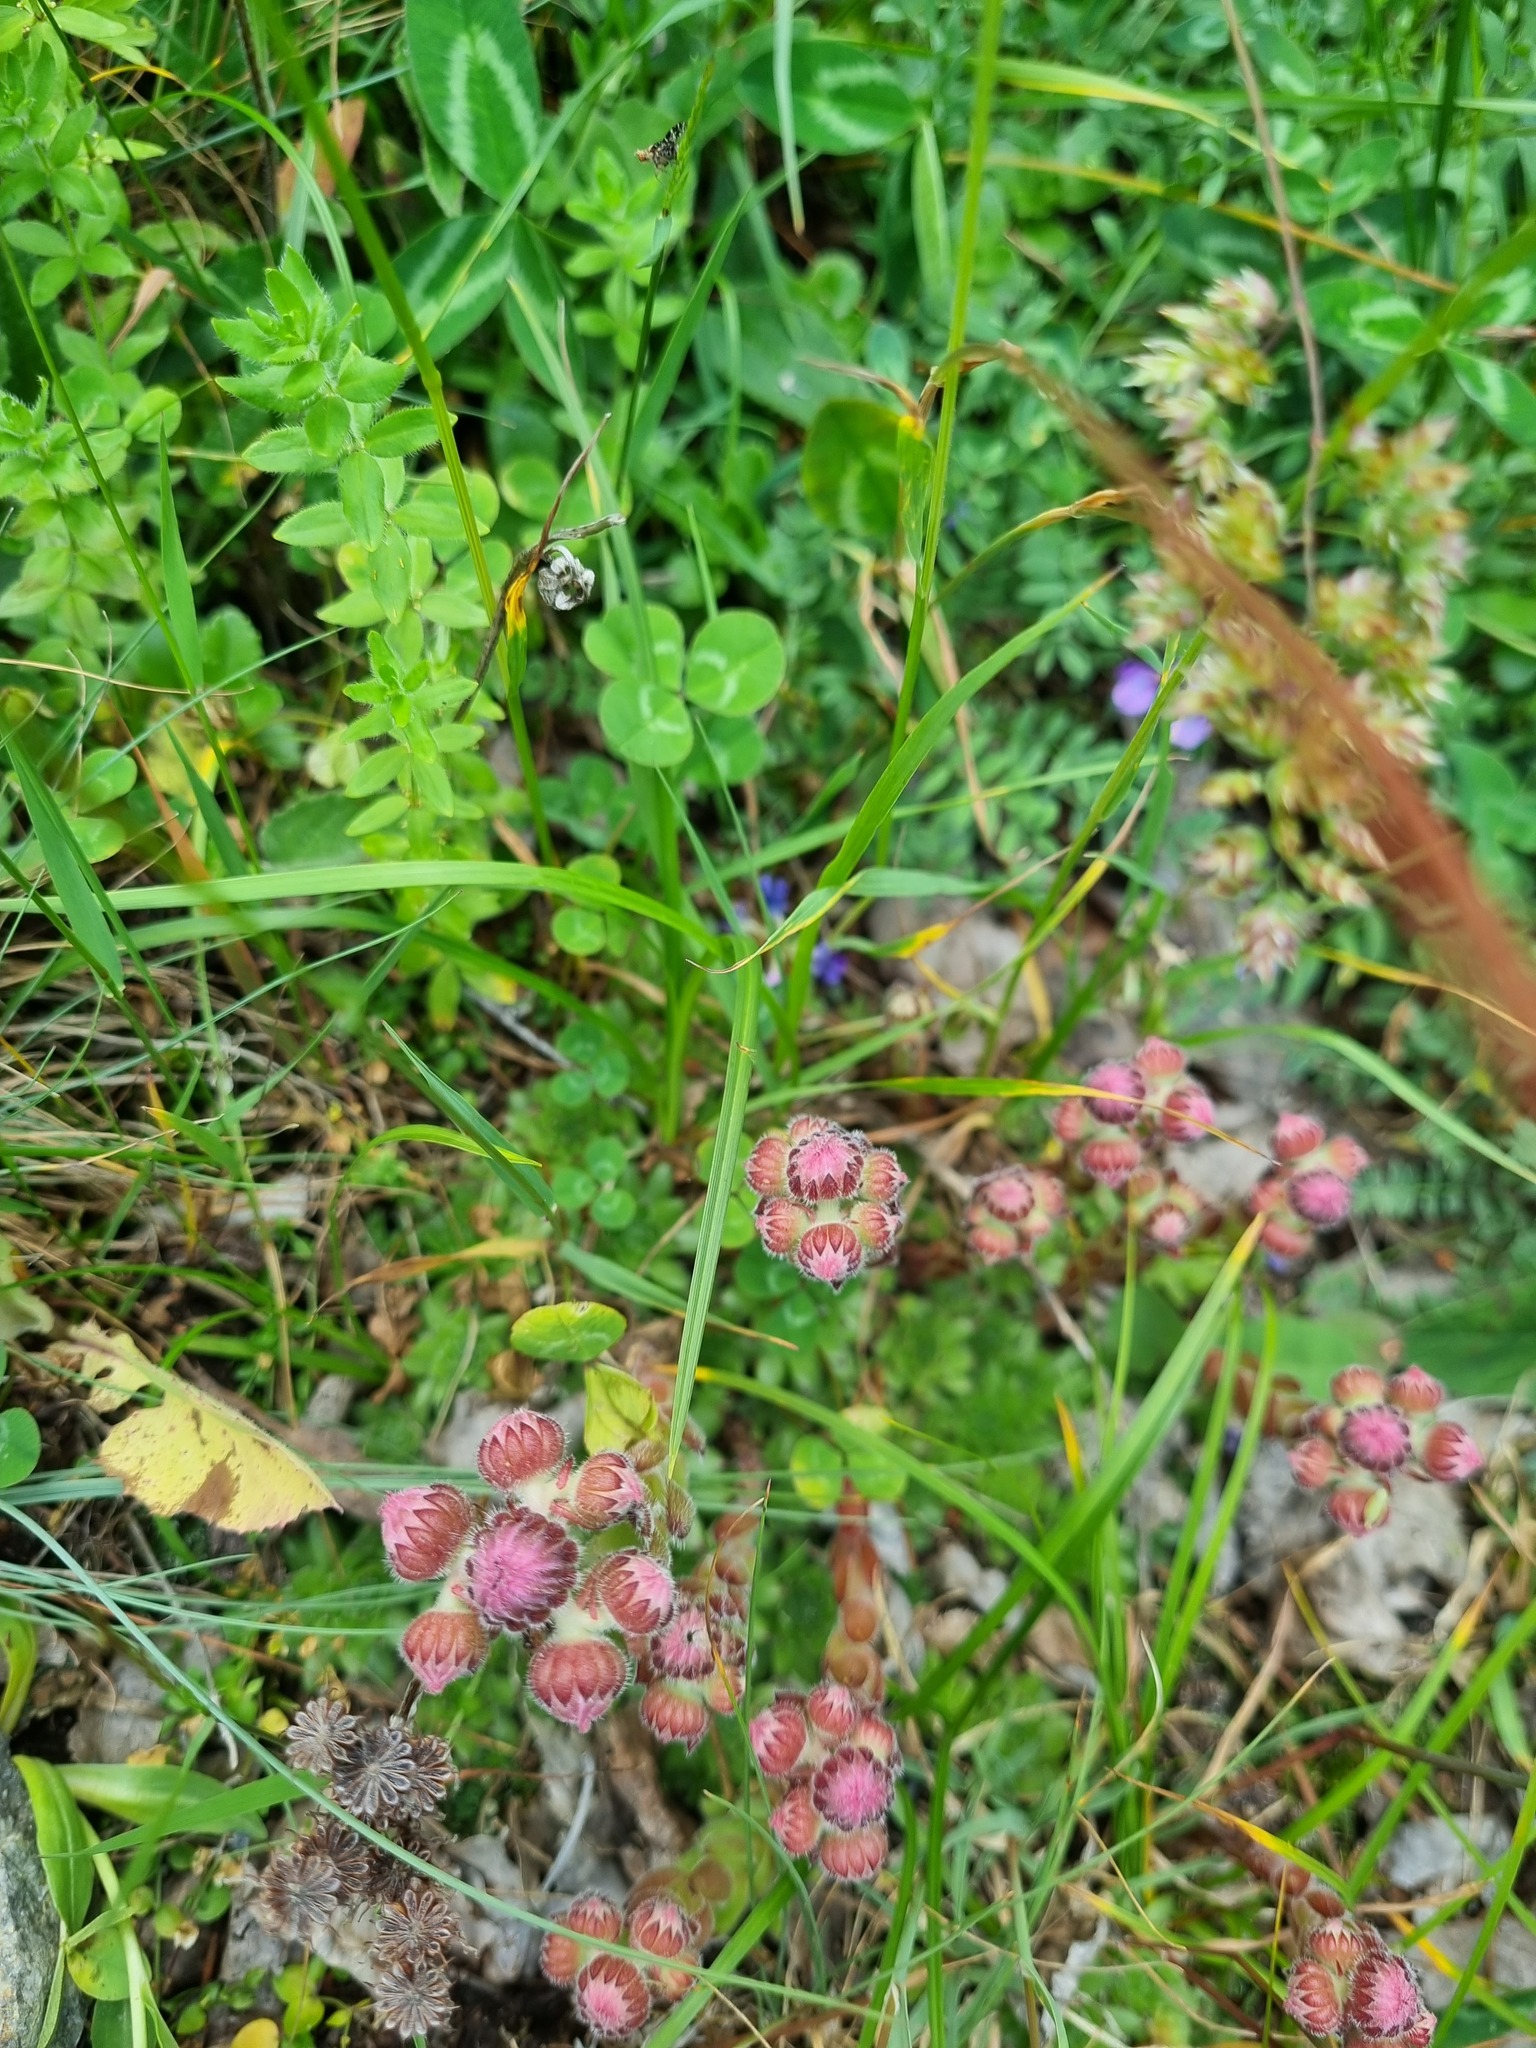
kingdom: Plantae
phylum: Tracheophyta
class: Magnoliopsida
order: Saxifragales
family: Crassulaceae
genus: Sempervivum
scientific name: Sempervivum caucasicum
